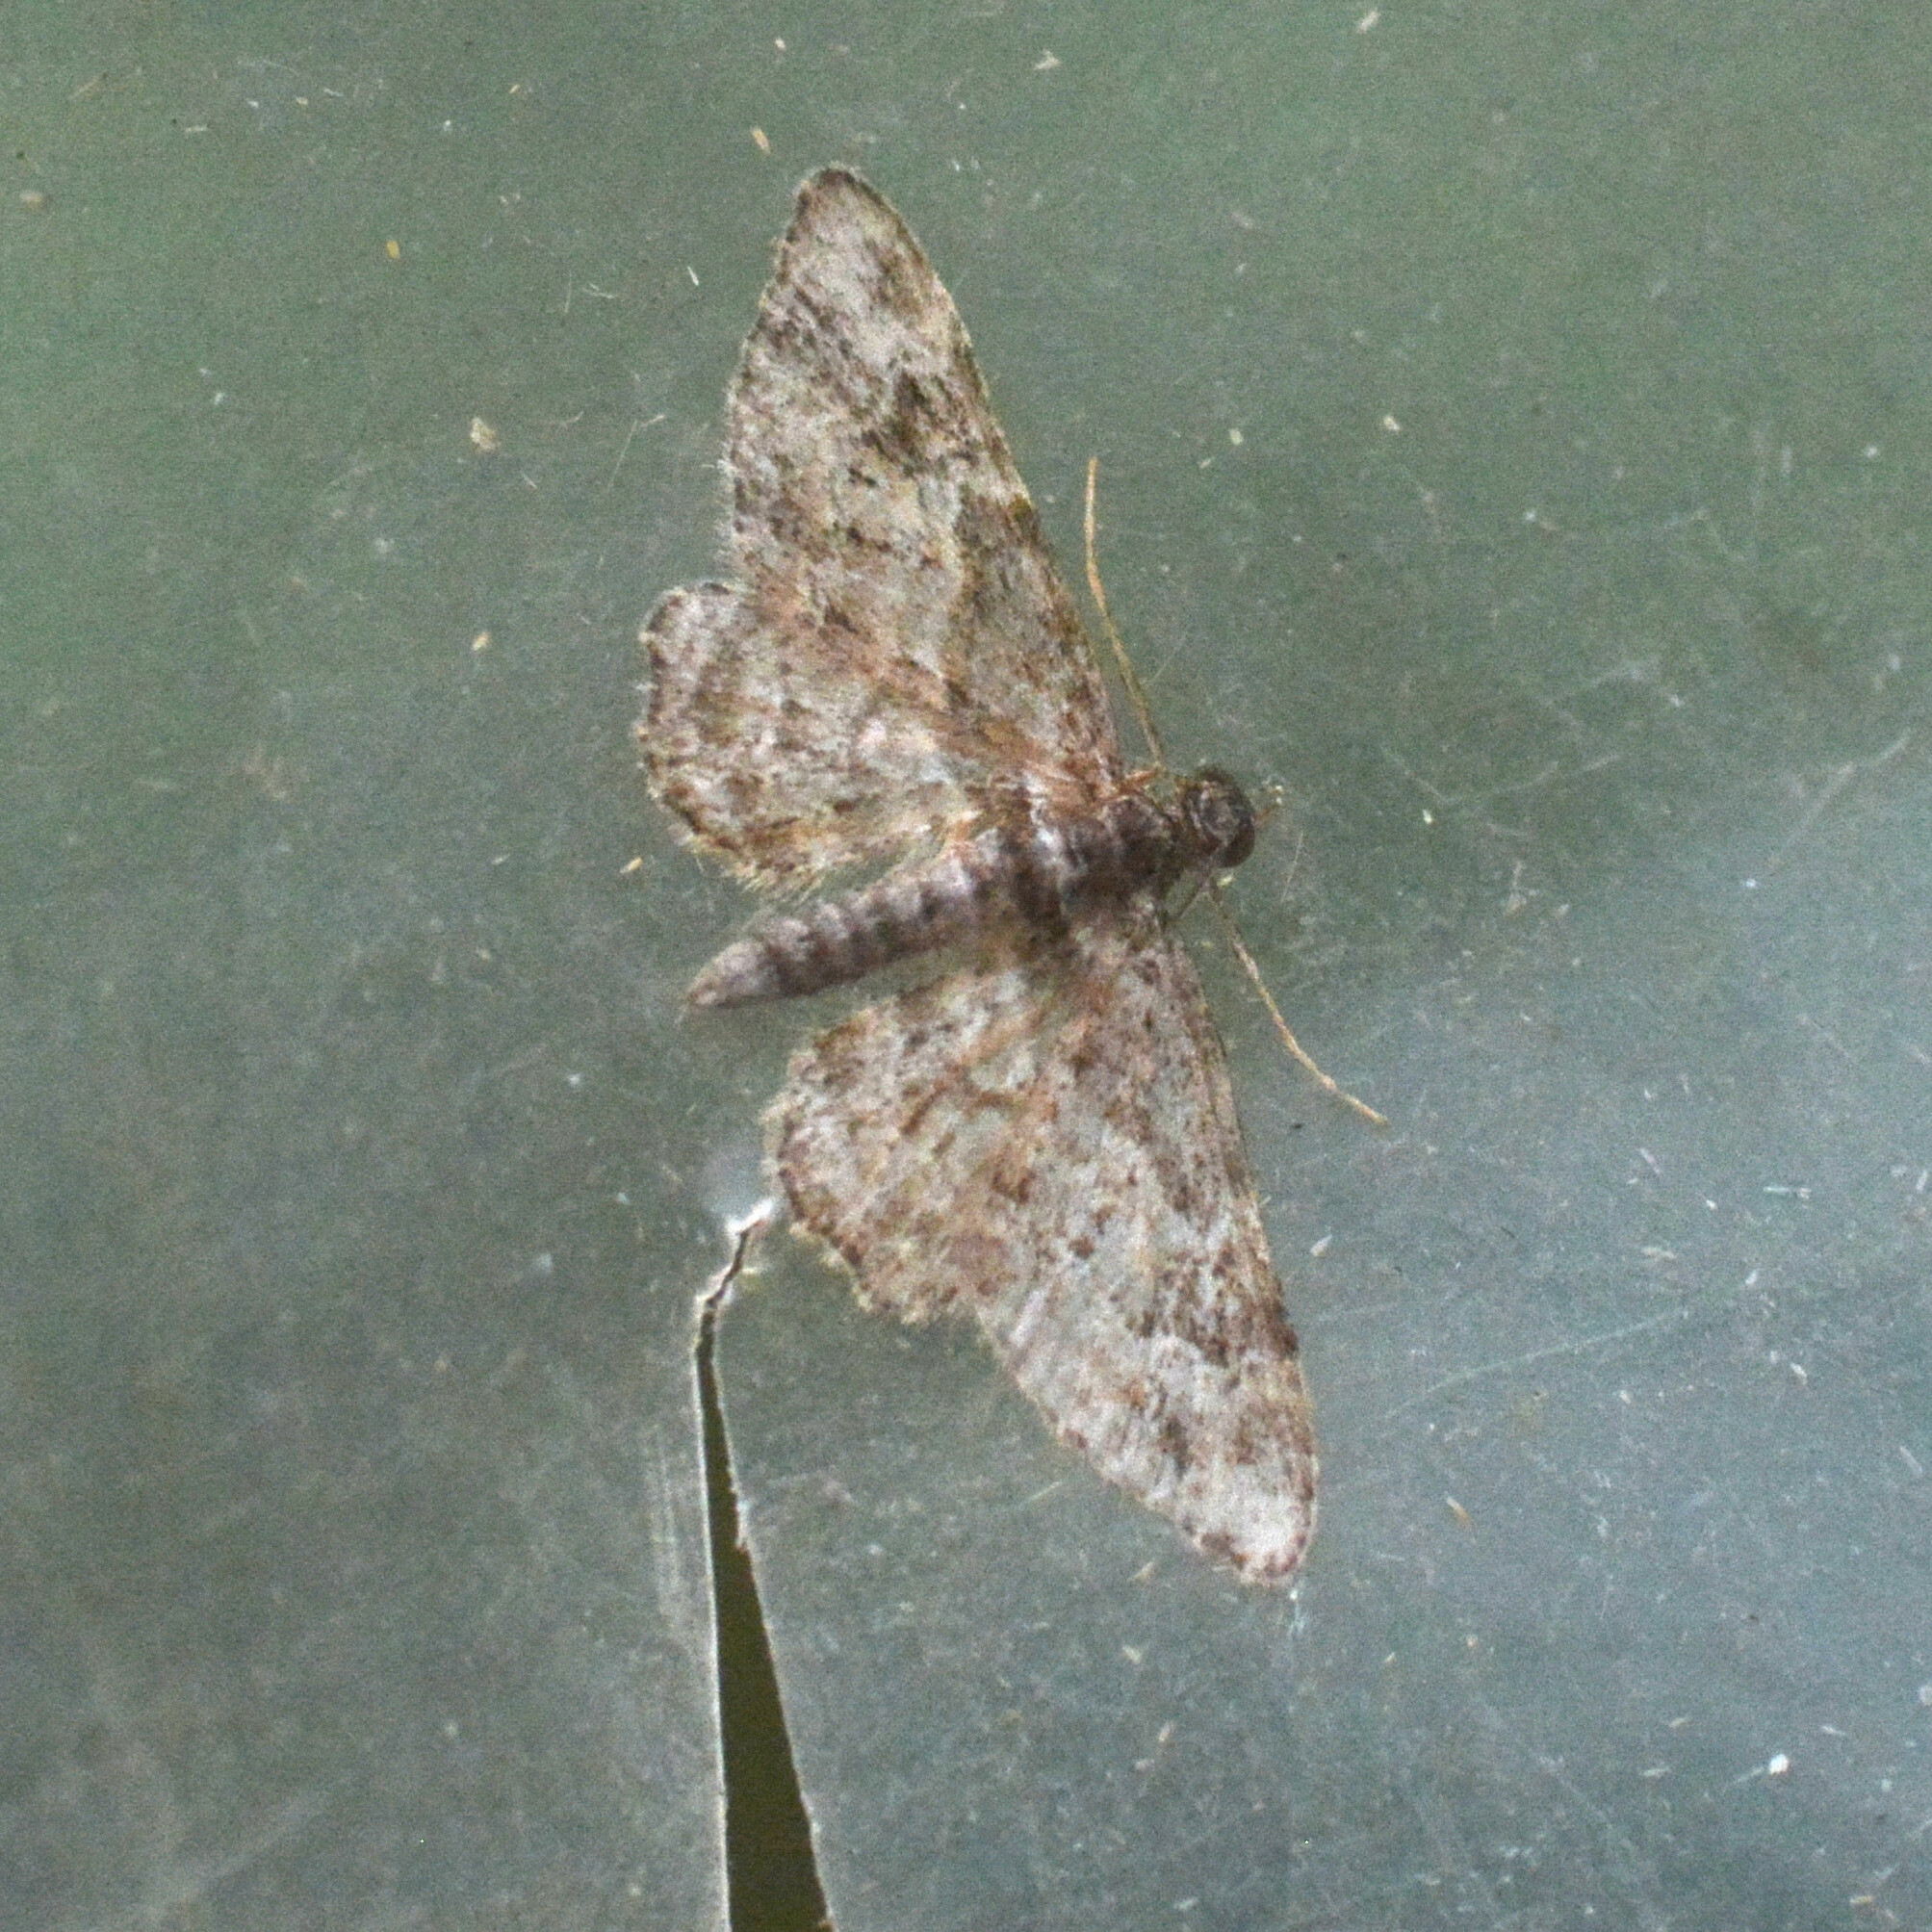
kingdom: Animalia
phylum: Arthropoda
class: Insecta
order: Lepidoptera
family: Geometridae
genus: Gymnoscelis
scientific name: Gymnoscelis rufifasciata
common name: Double-striped pug
